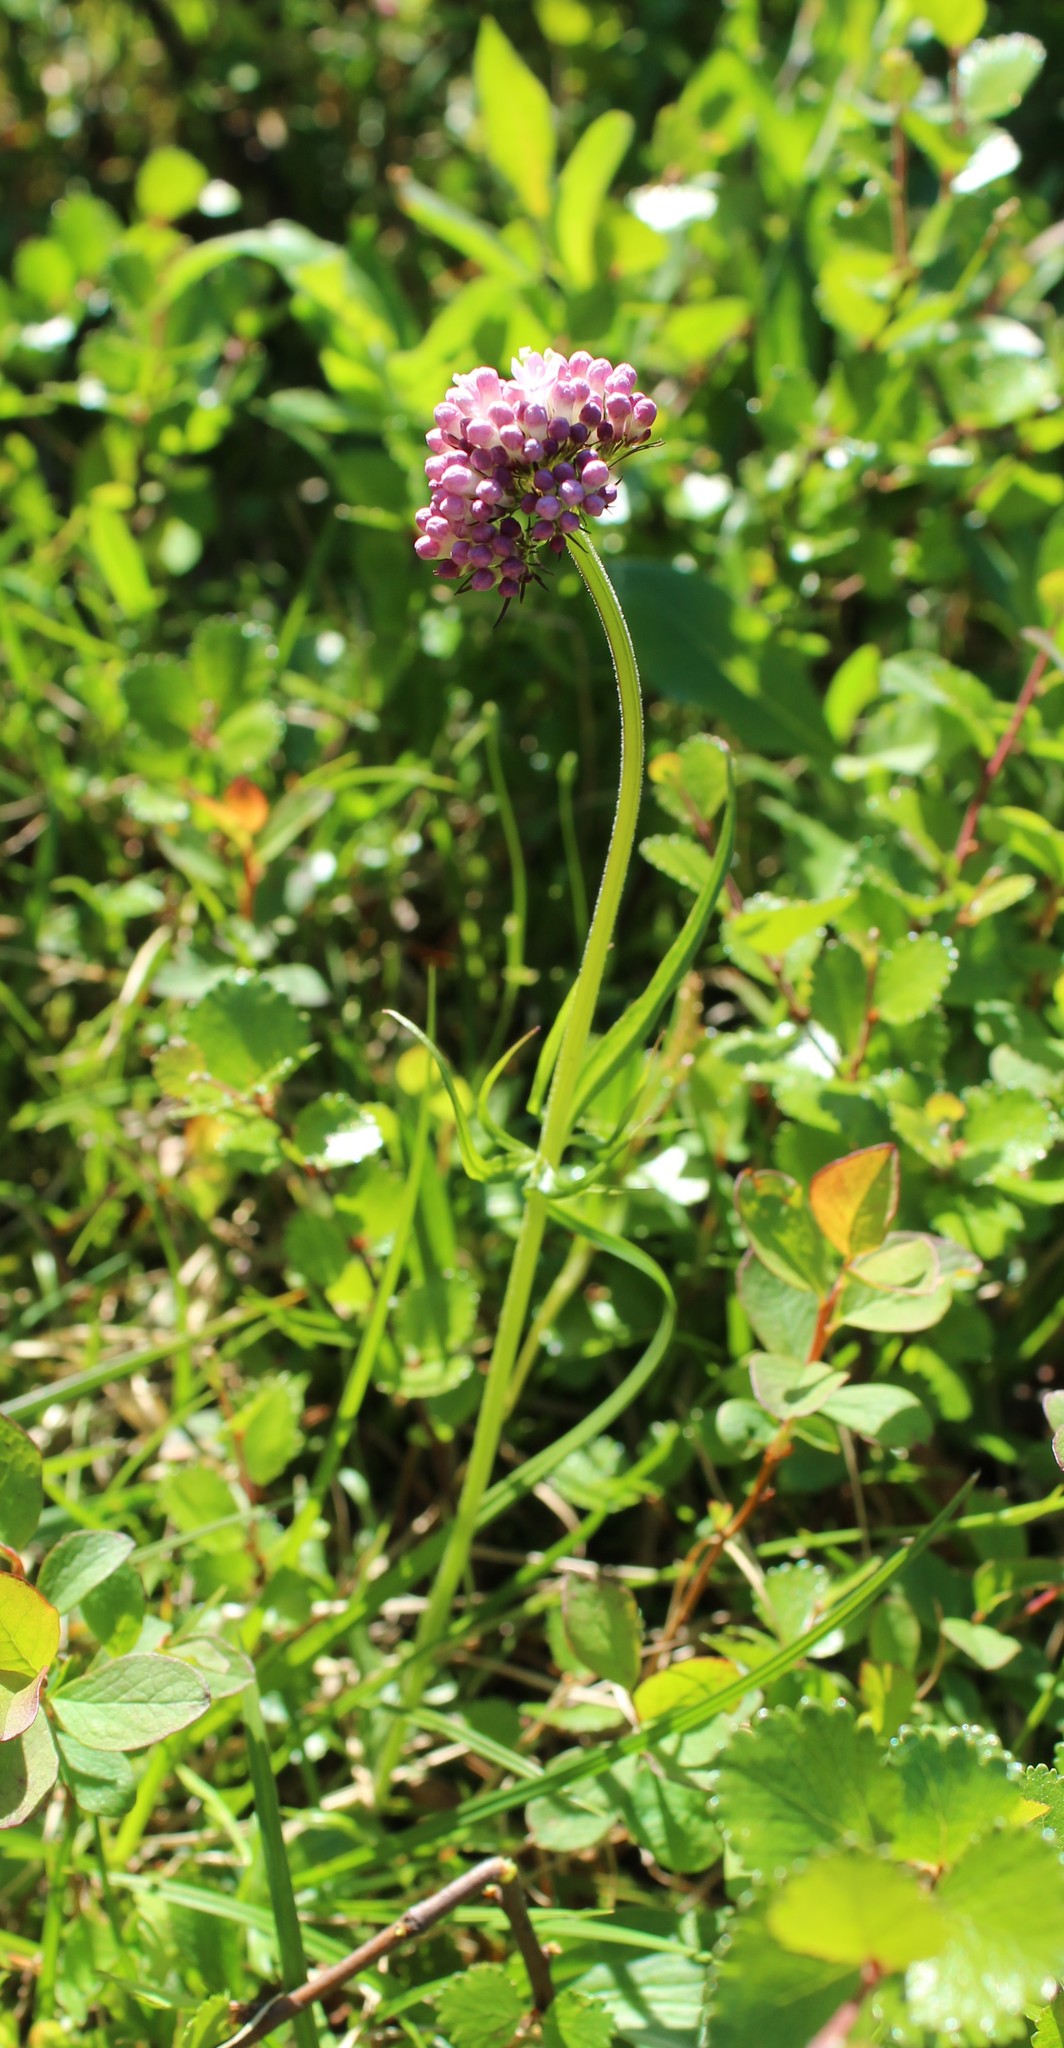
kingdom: Plantae
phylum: Tracheophyta
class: Magnoliopsida
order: Dipsacales
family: Caprifoliaceae
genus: Valeriana
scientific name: Valeriana capitata
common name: Capitate valerian
